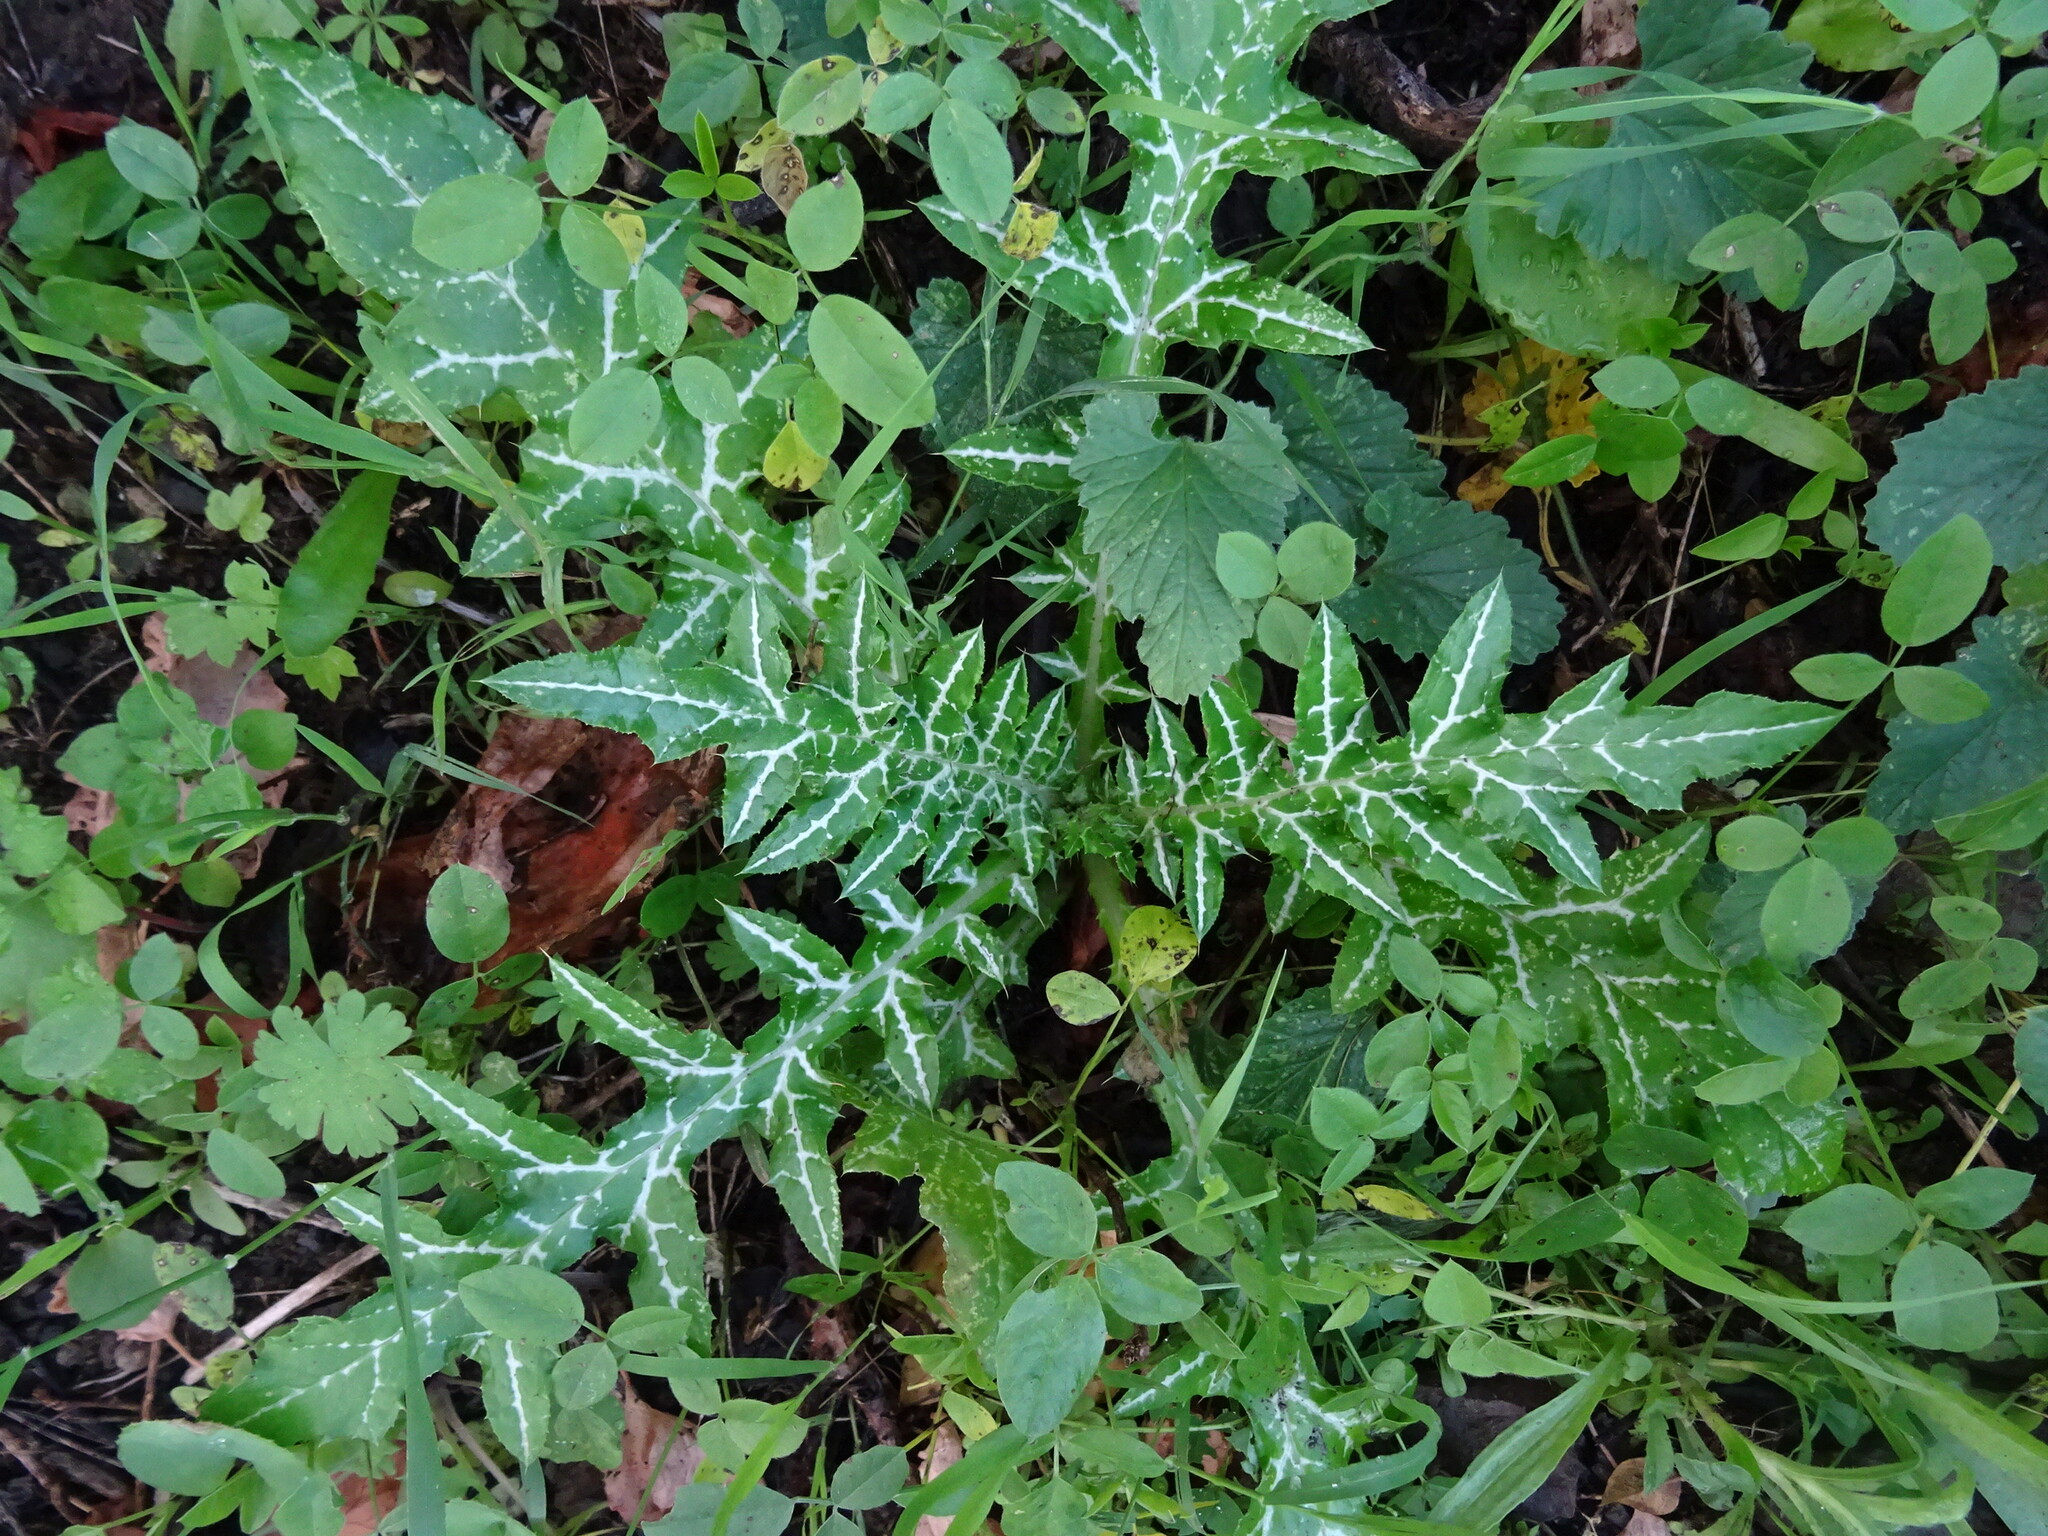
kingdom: Plantae
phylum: Tracheophyta
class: Magnoliopsida
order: Asterales
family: Asteraceae
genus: Galactites
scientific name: Galactites tomentosa
